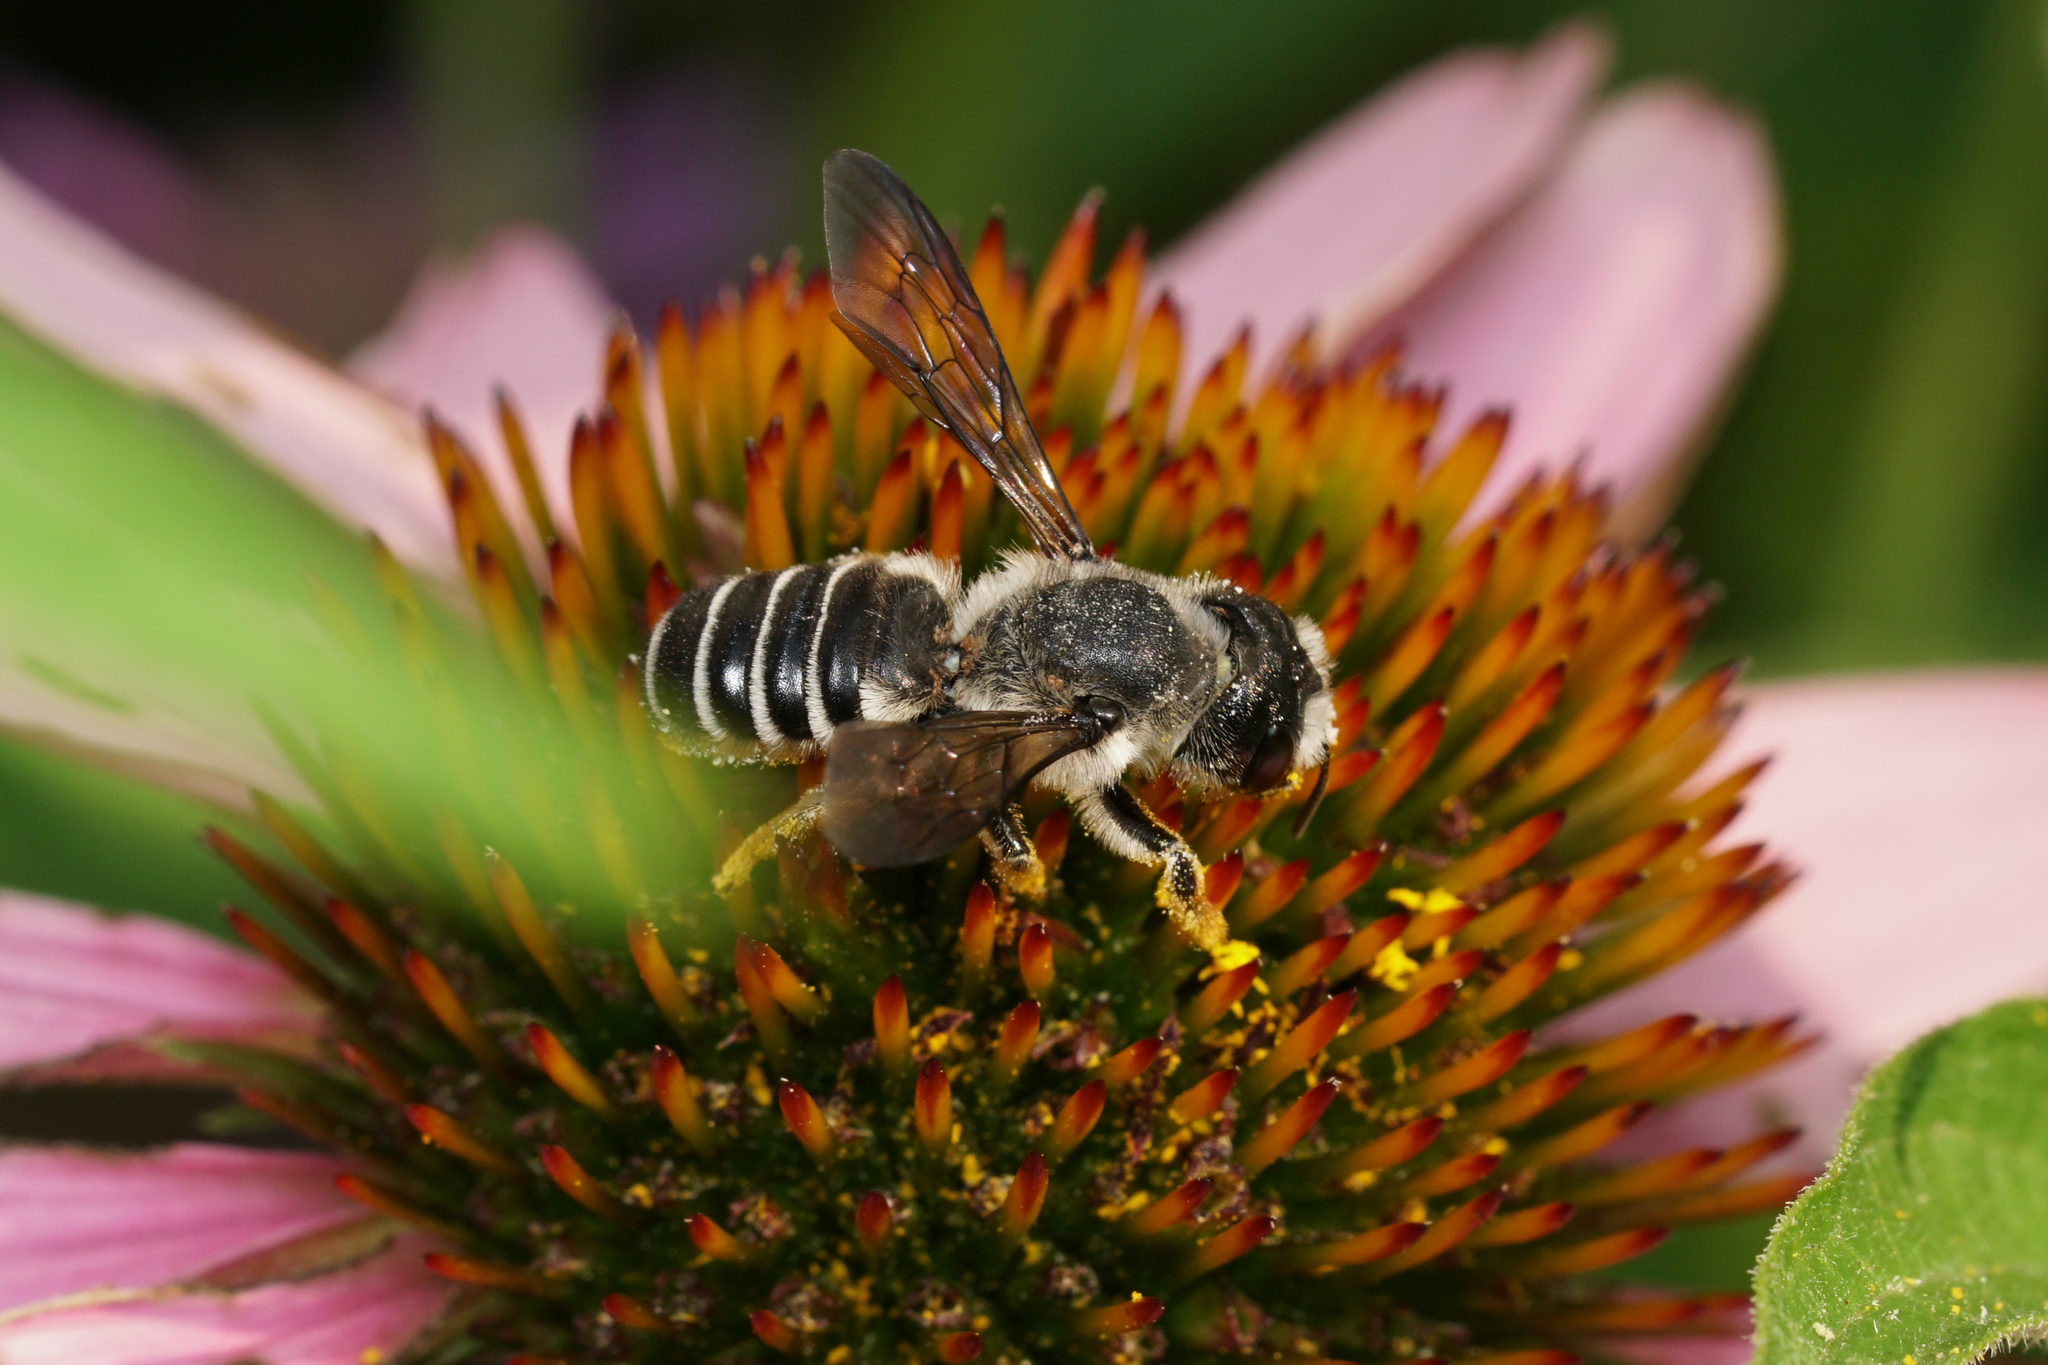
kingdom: Animalia
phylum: Arthropoda
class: Insecta
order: Hymenoptera
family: Megachilidae
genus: Megachile
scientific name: Megachile pugnata
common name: Pugnacious leafcutter bee
